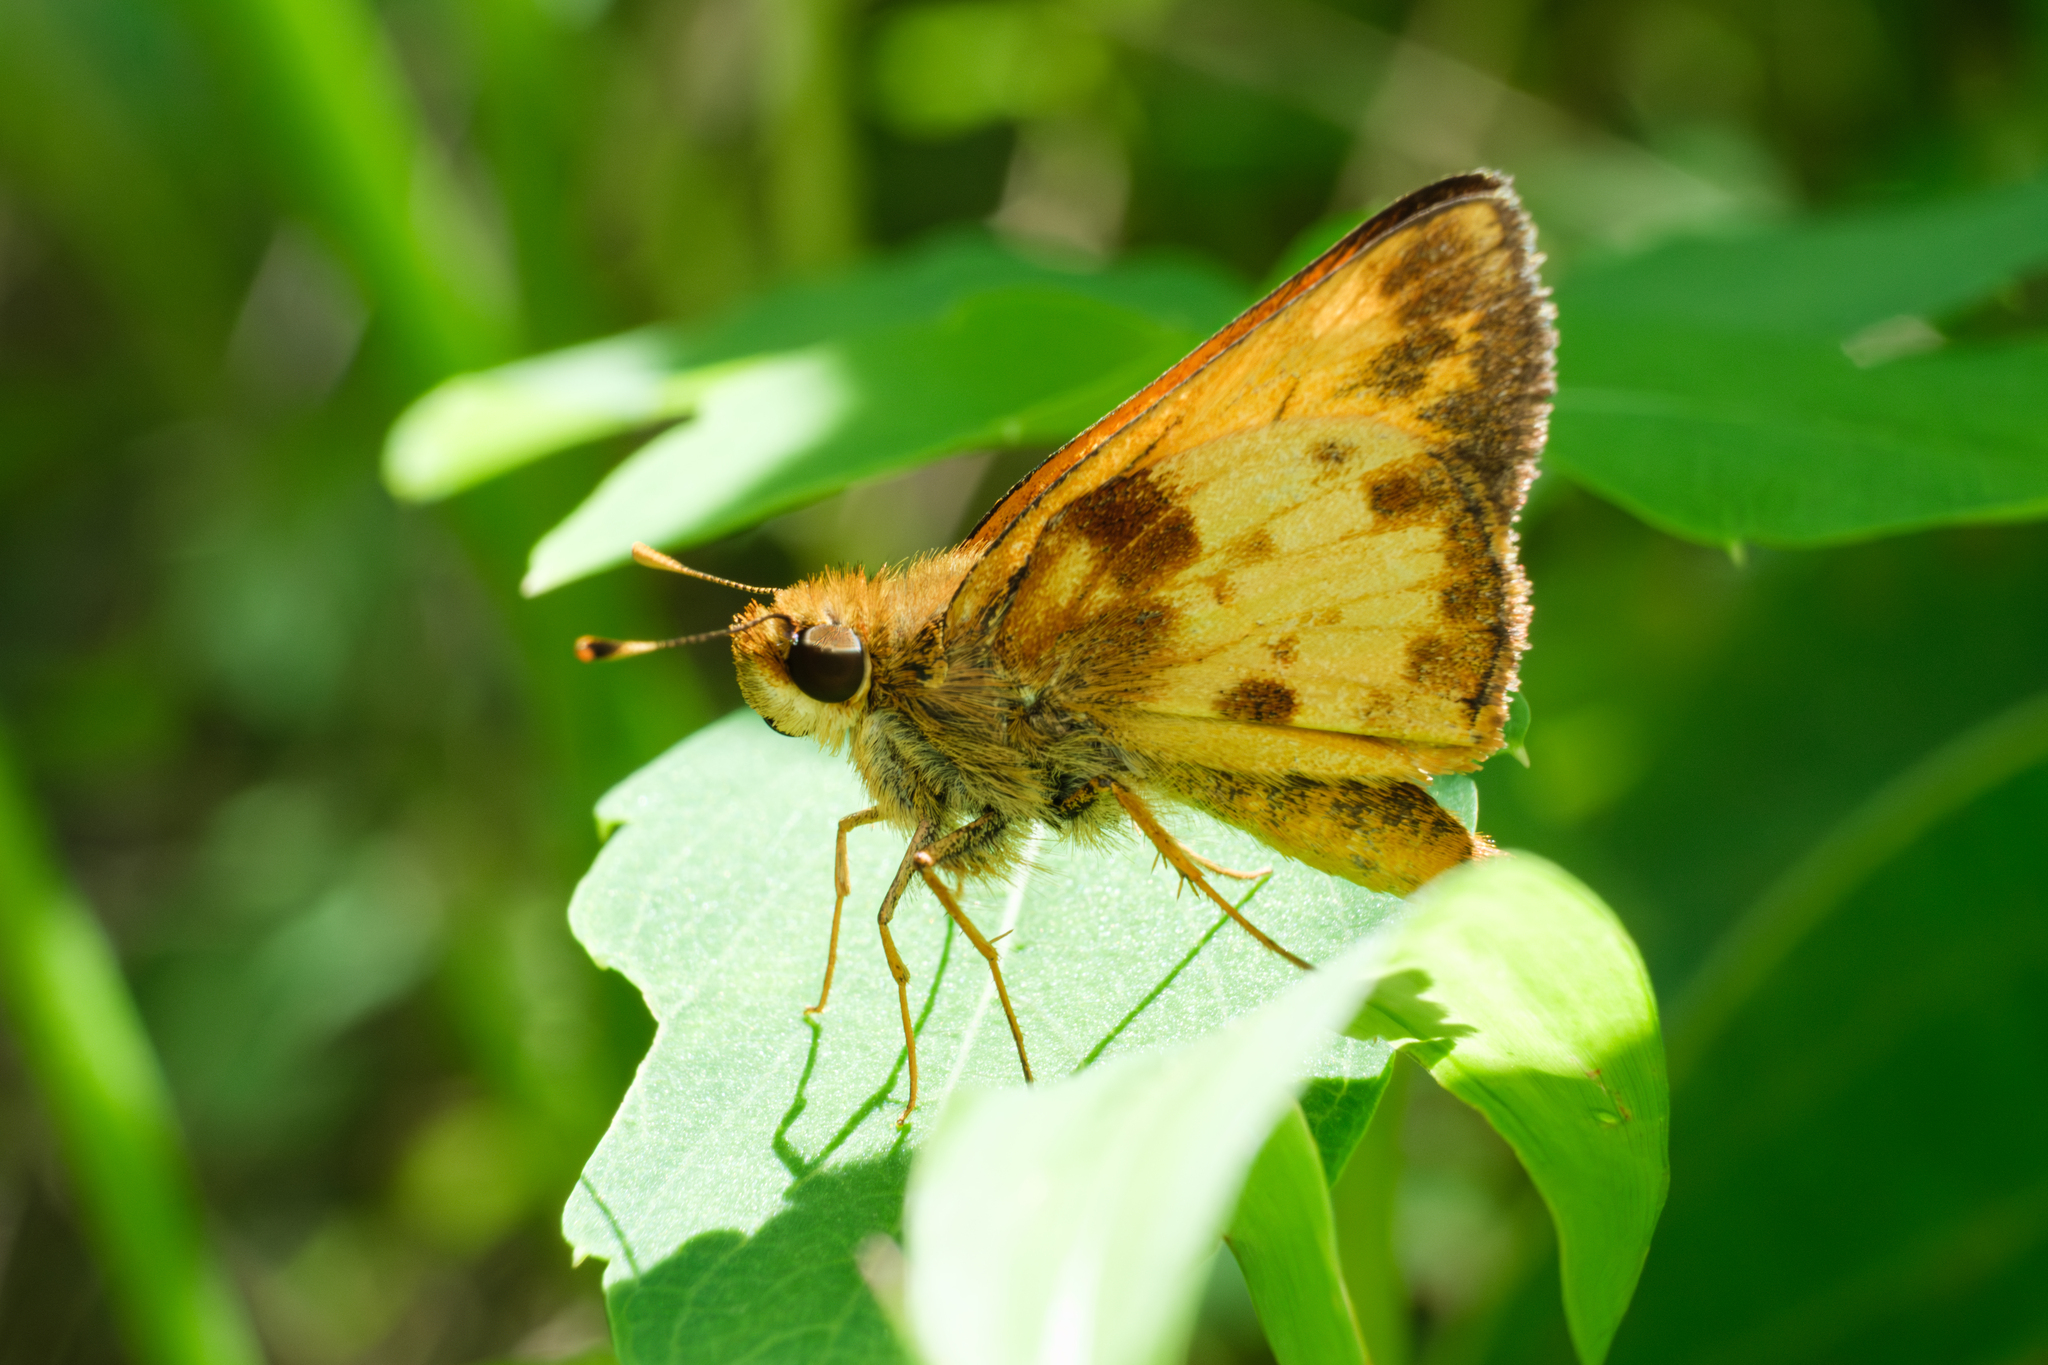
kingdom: Animalia
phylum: Arthropoda
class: Insecta
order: Lepidoptera
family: Hesperiidae
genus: Lon
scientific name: Lon zabulon
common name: Zabulon skipper
